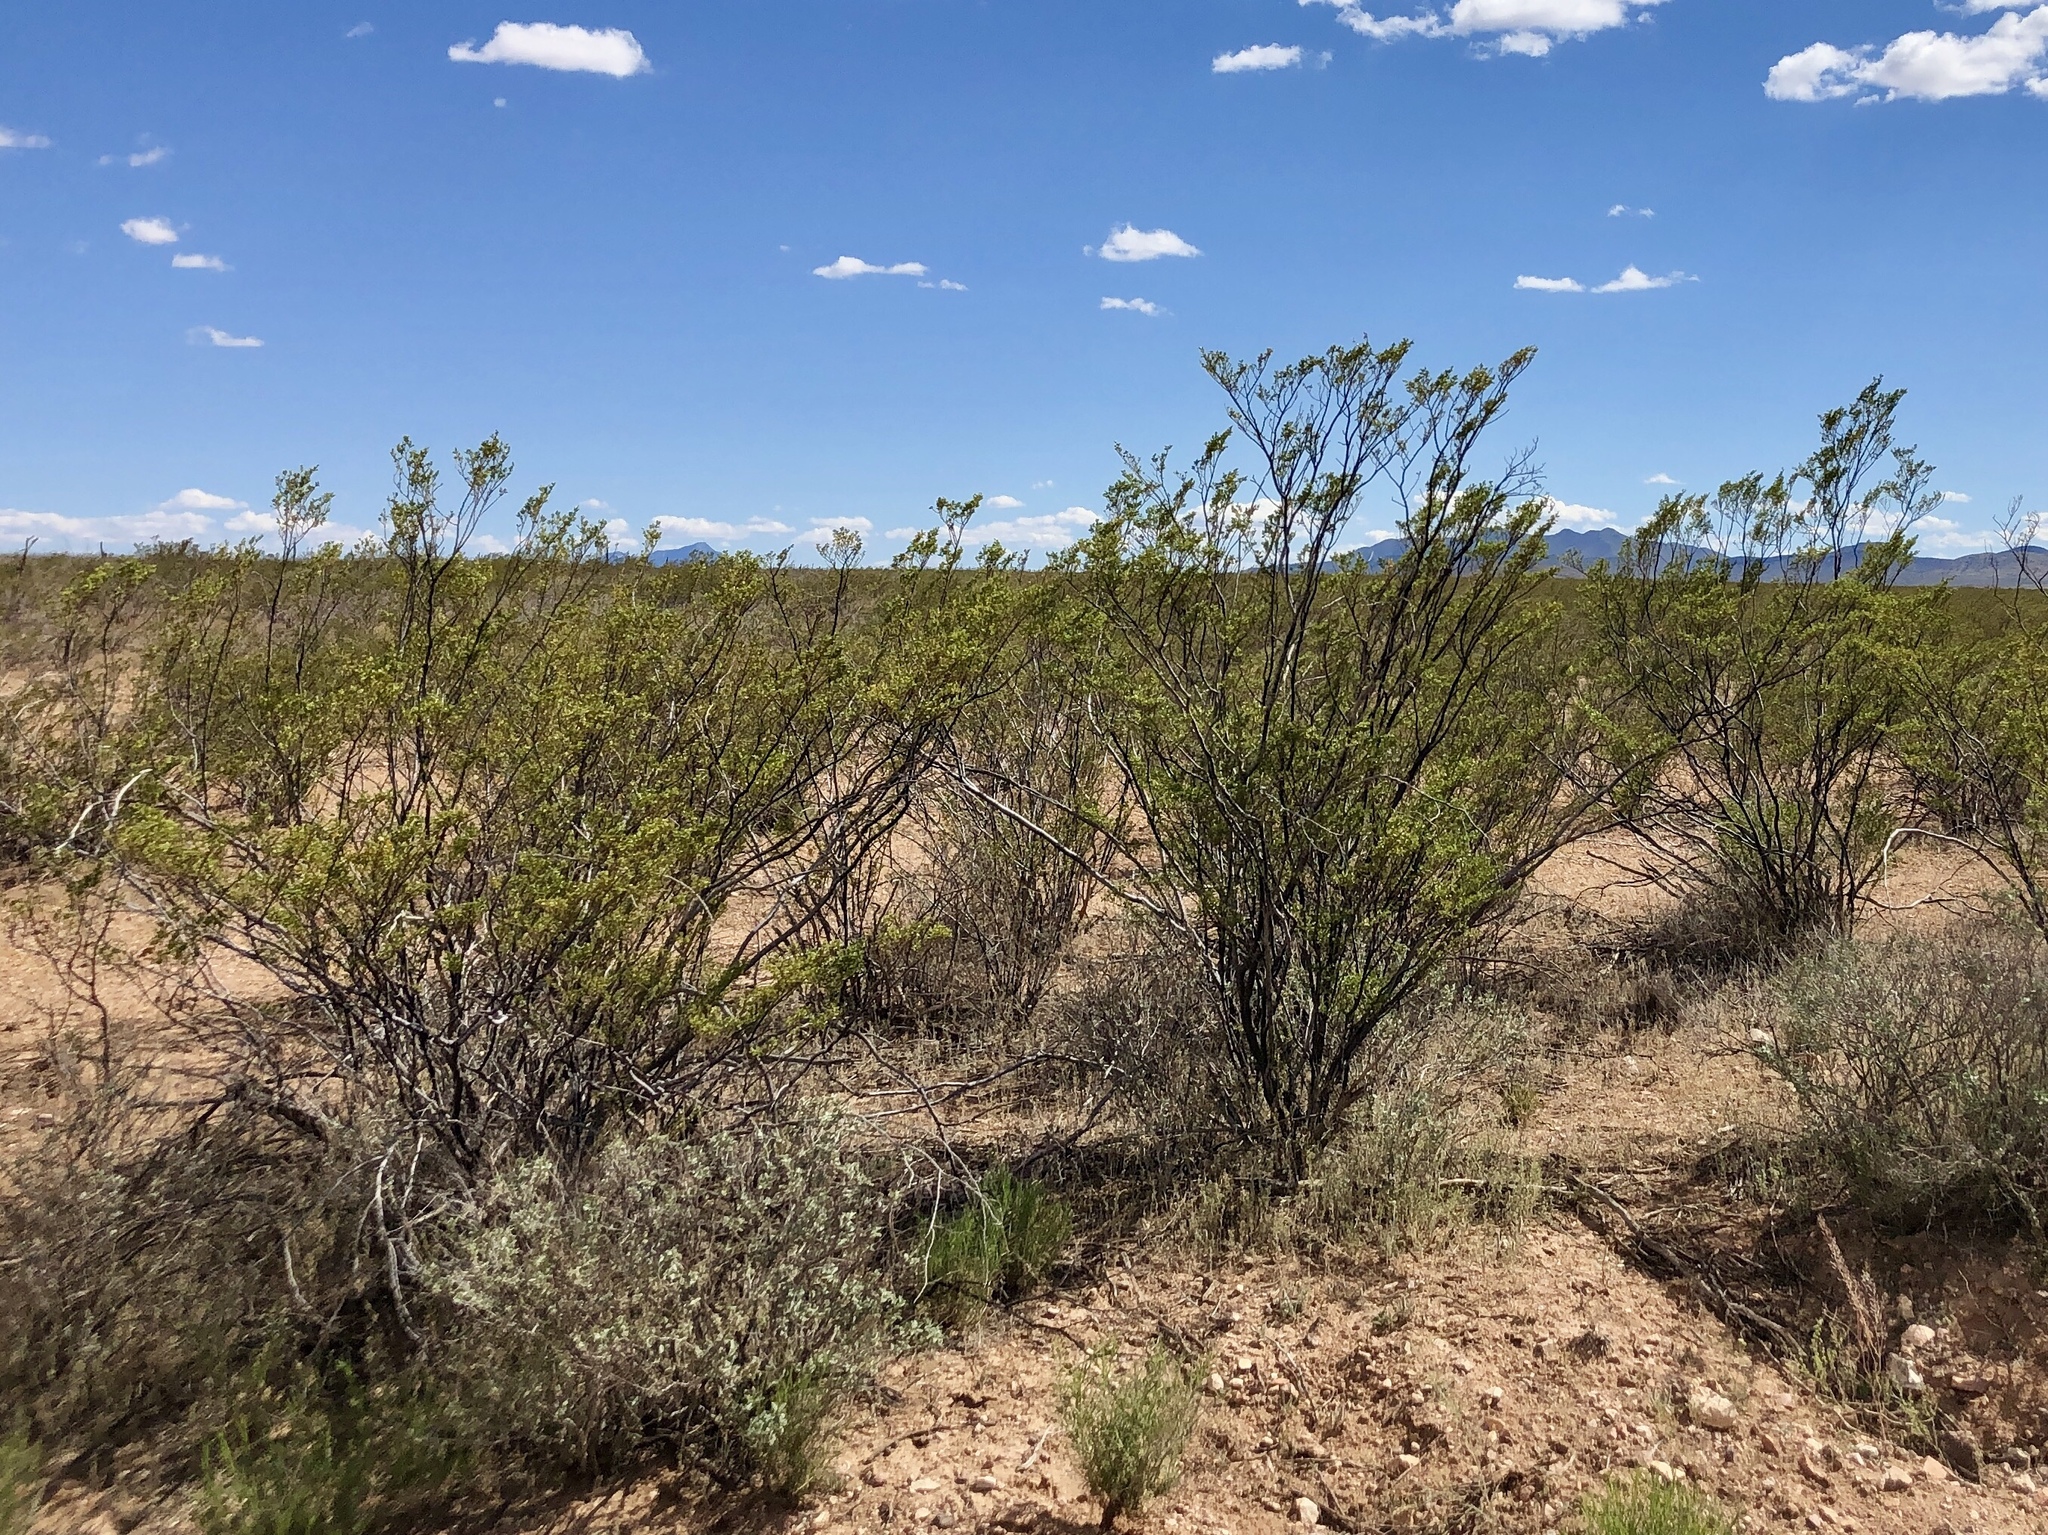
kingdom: Plantae
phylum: Tracheophyta
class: Magnoliopsida
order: Zygophyllales
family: Zygophyllaceae
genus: Larrea
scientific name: Larrea tridentata
